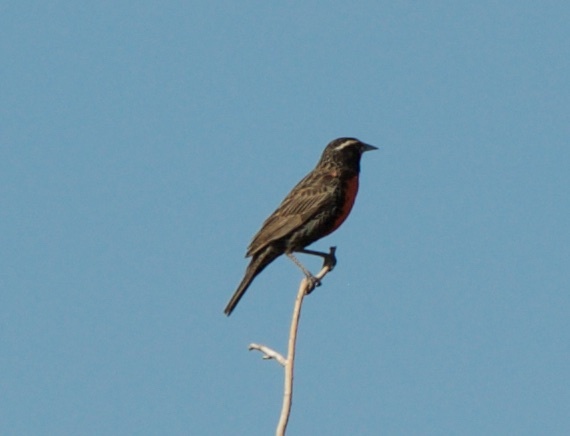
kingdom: Animalia
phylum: Chordata
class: Aves
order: Passeriformes
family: Icteridae
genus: Sturnella
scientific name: Sturnella superciliaris
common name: White-browed blackbird
